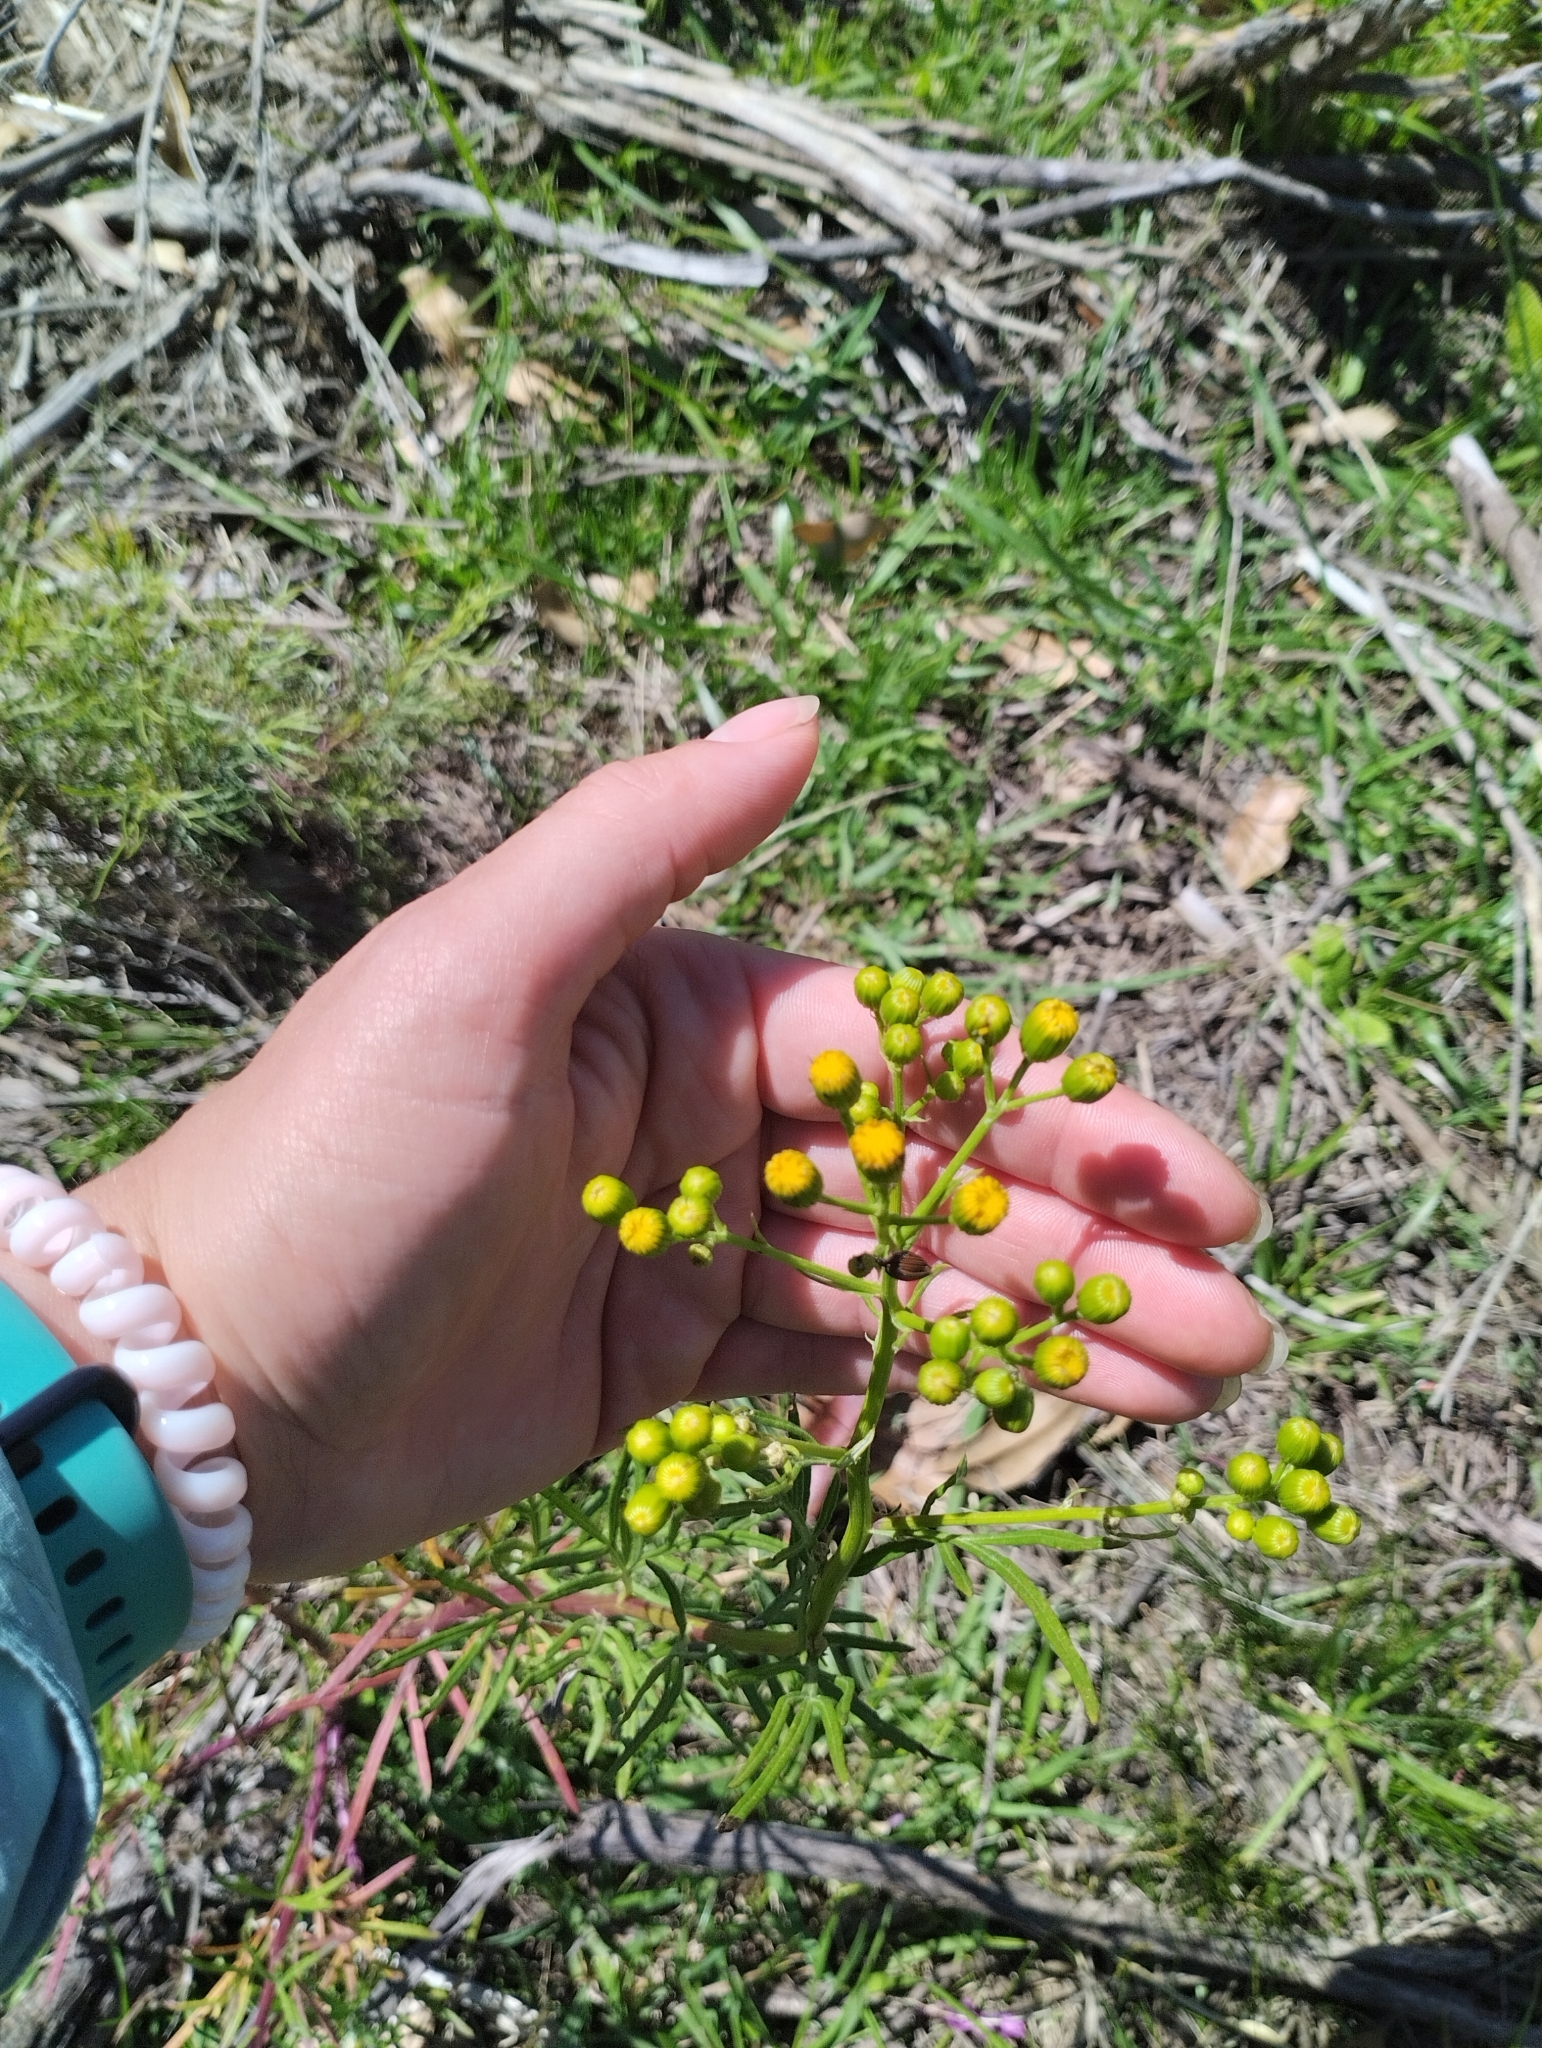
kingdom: Plantae
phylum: Tracheophyta
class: Magnoliopsida
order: Asterales
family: Asteraceae
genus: Senecio
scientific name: Senecio brasiliensis
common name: Hemp-leaf ragwort
